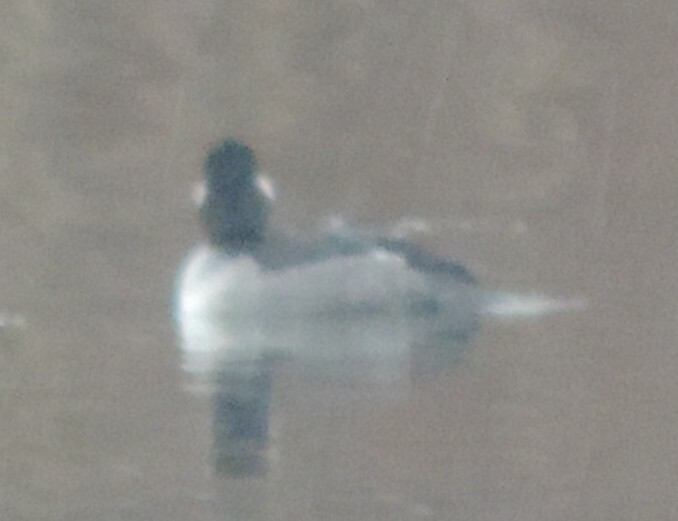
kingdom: Animalia
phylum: Chordata
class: Aves
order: Anseriformes
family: Anatidae
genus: Bucephala
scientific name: Bucephala albeola
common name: Bufflehead
